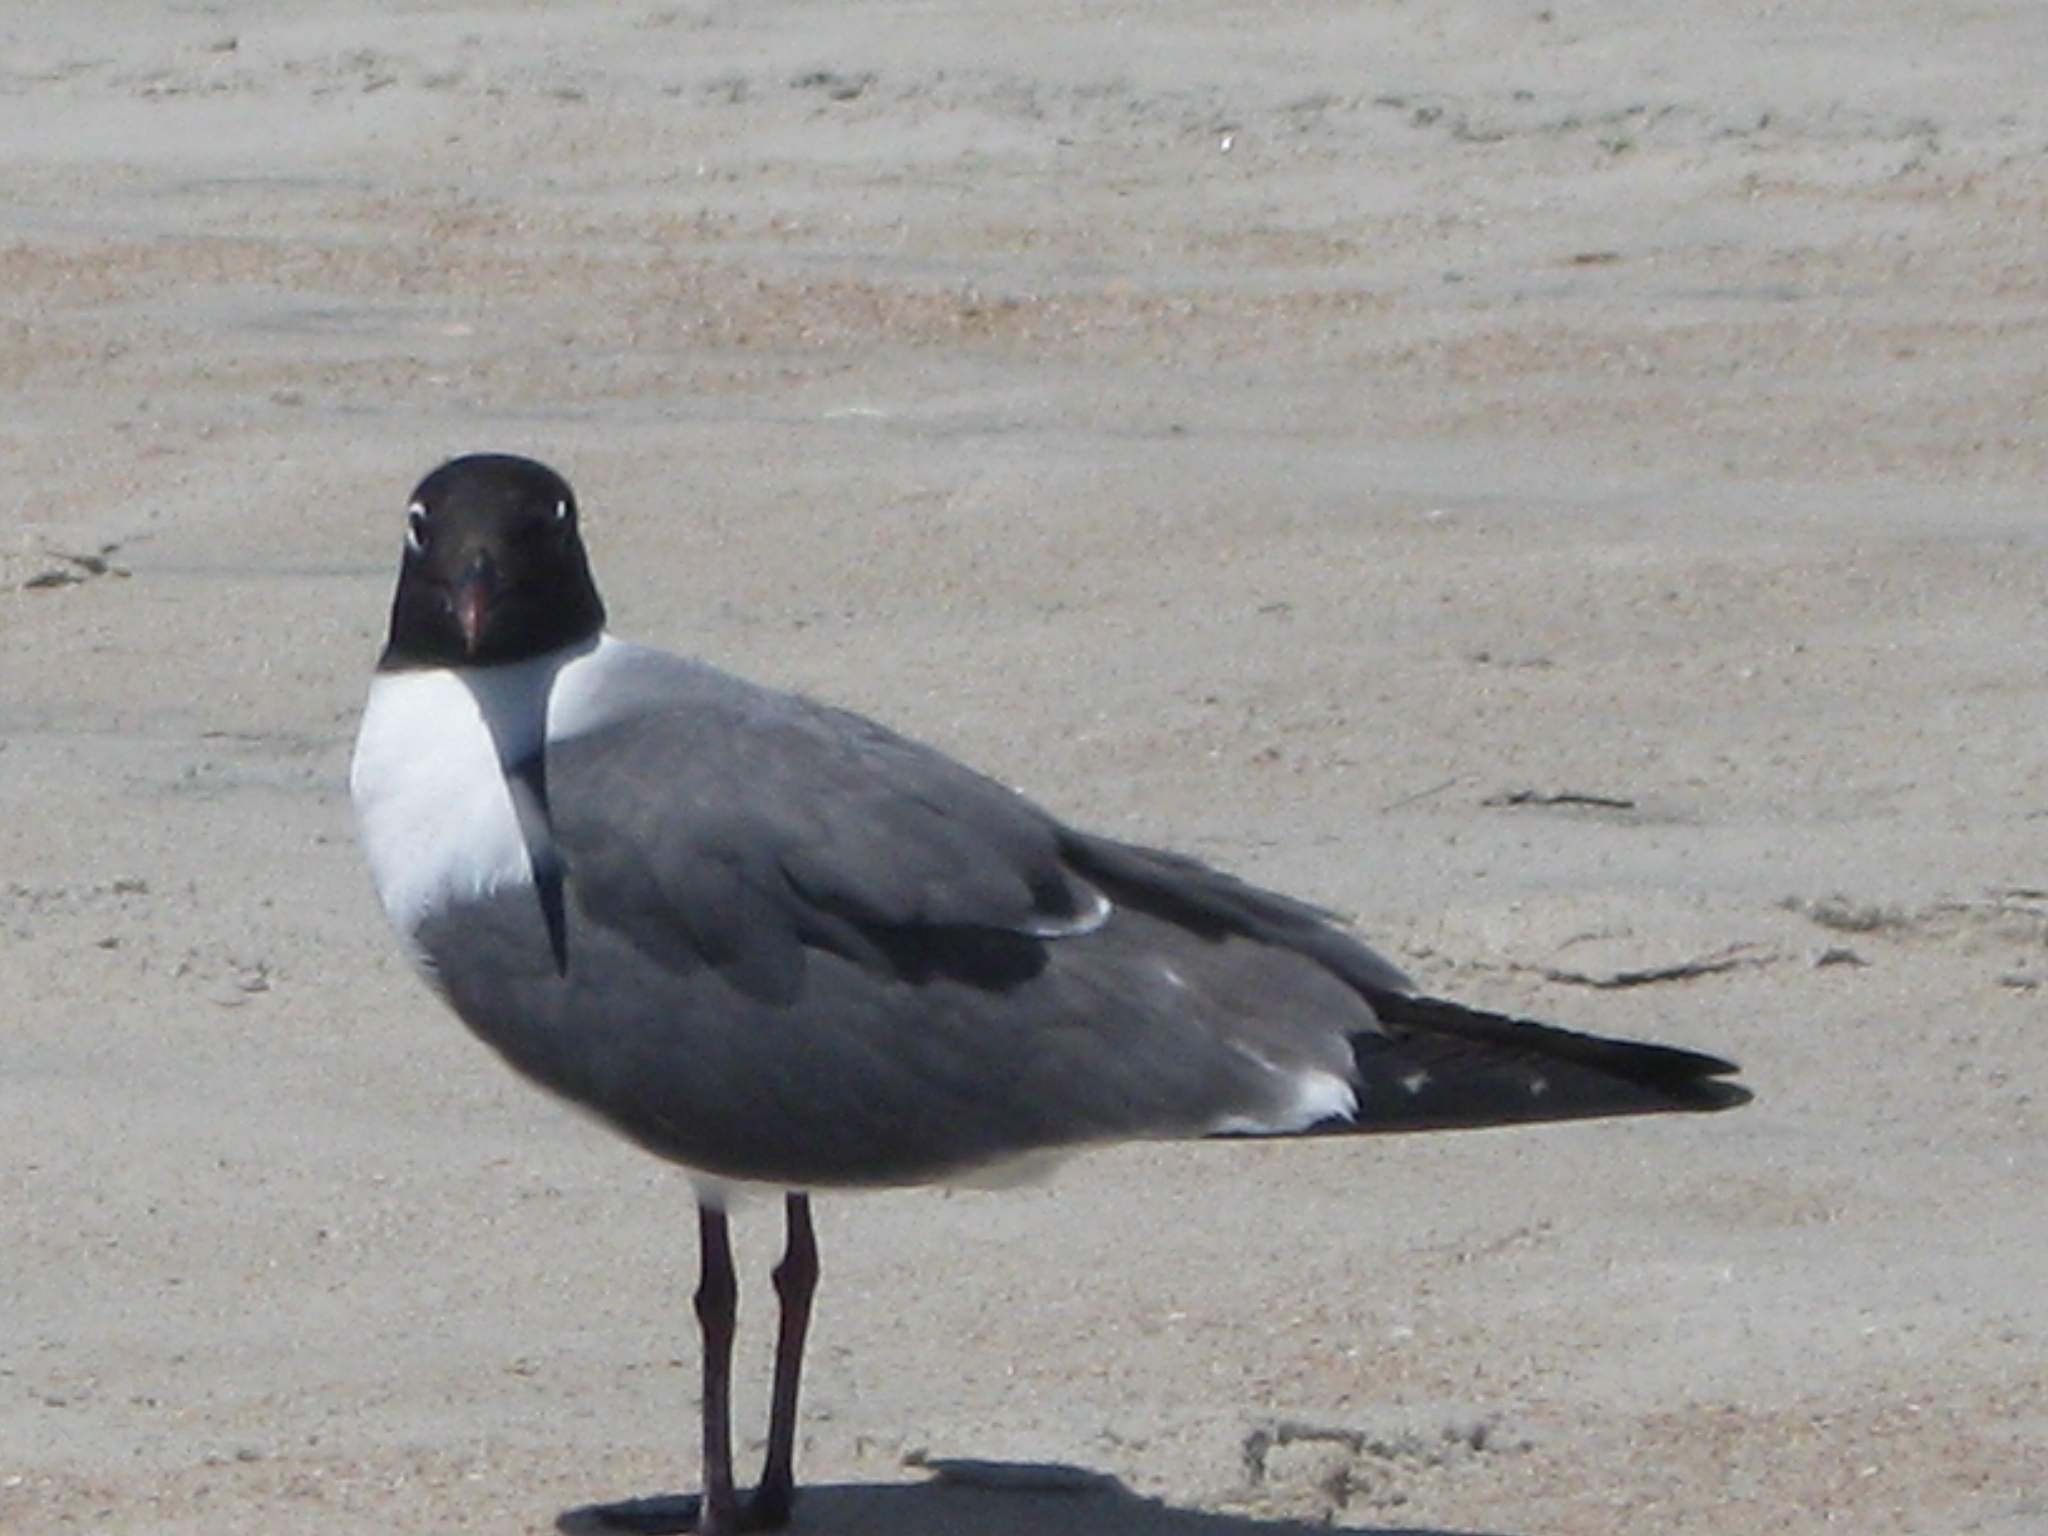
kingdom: Animalia
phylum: Chordata
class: Aves
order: Charadriiformes
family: Laridae
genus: Leucophaeus
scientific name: Leucophaeus atricilla
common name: Laughing gull
